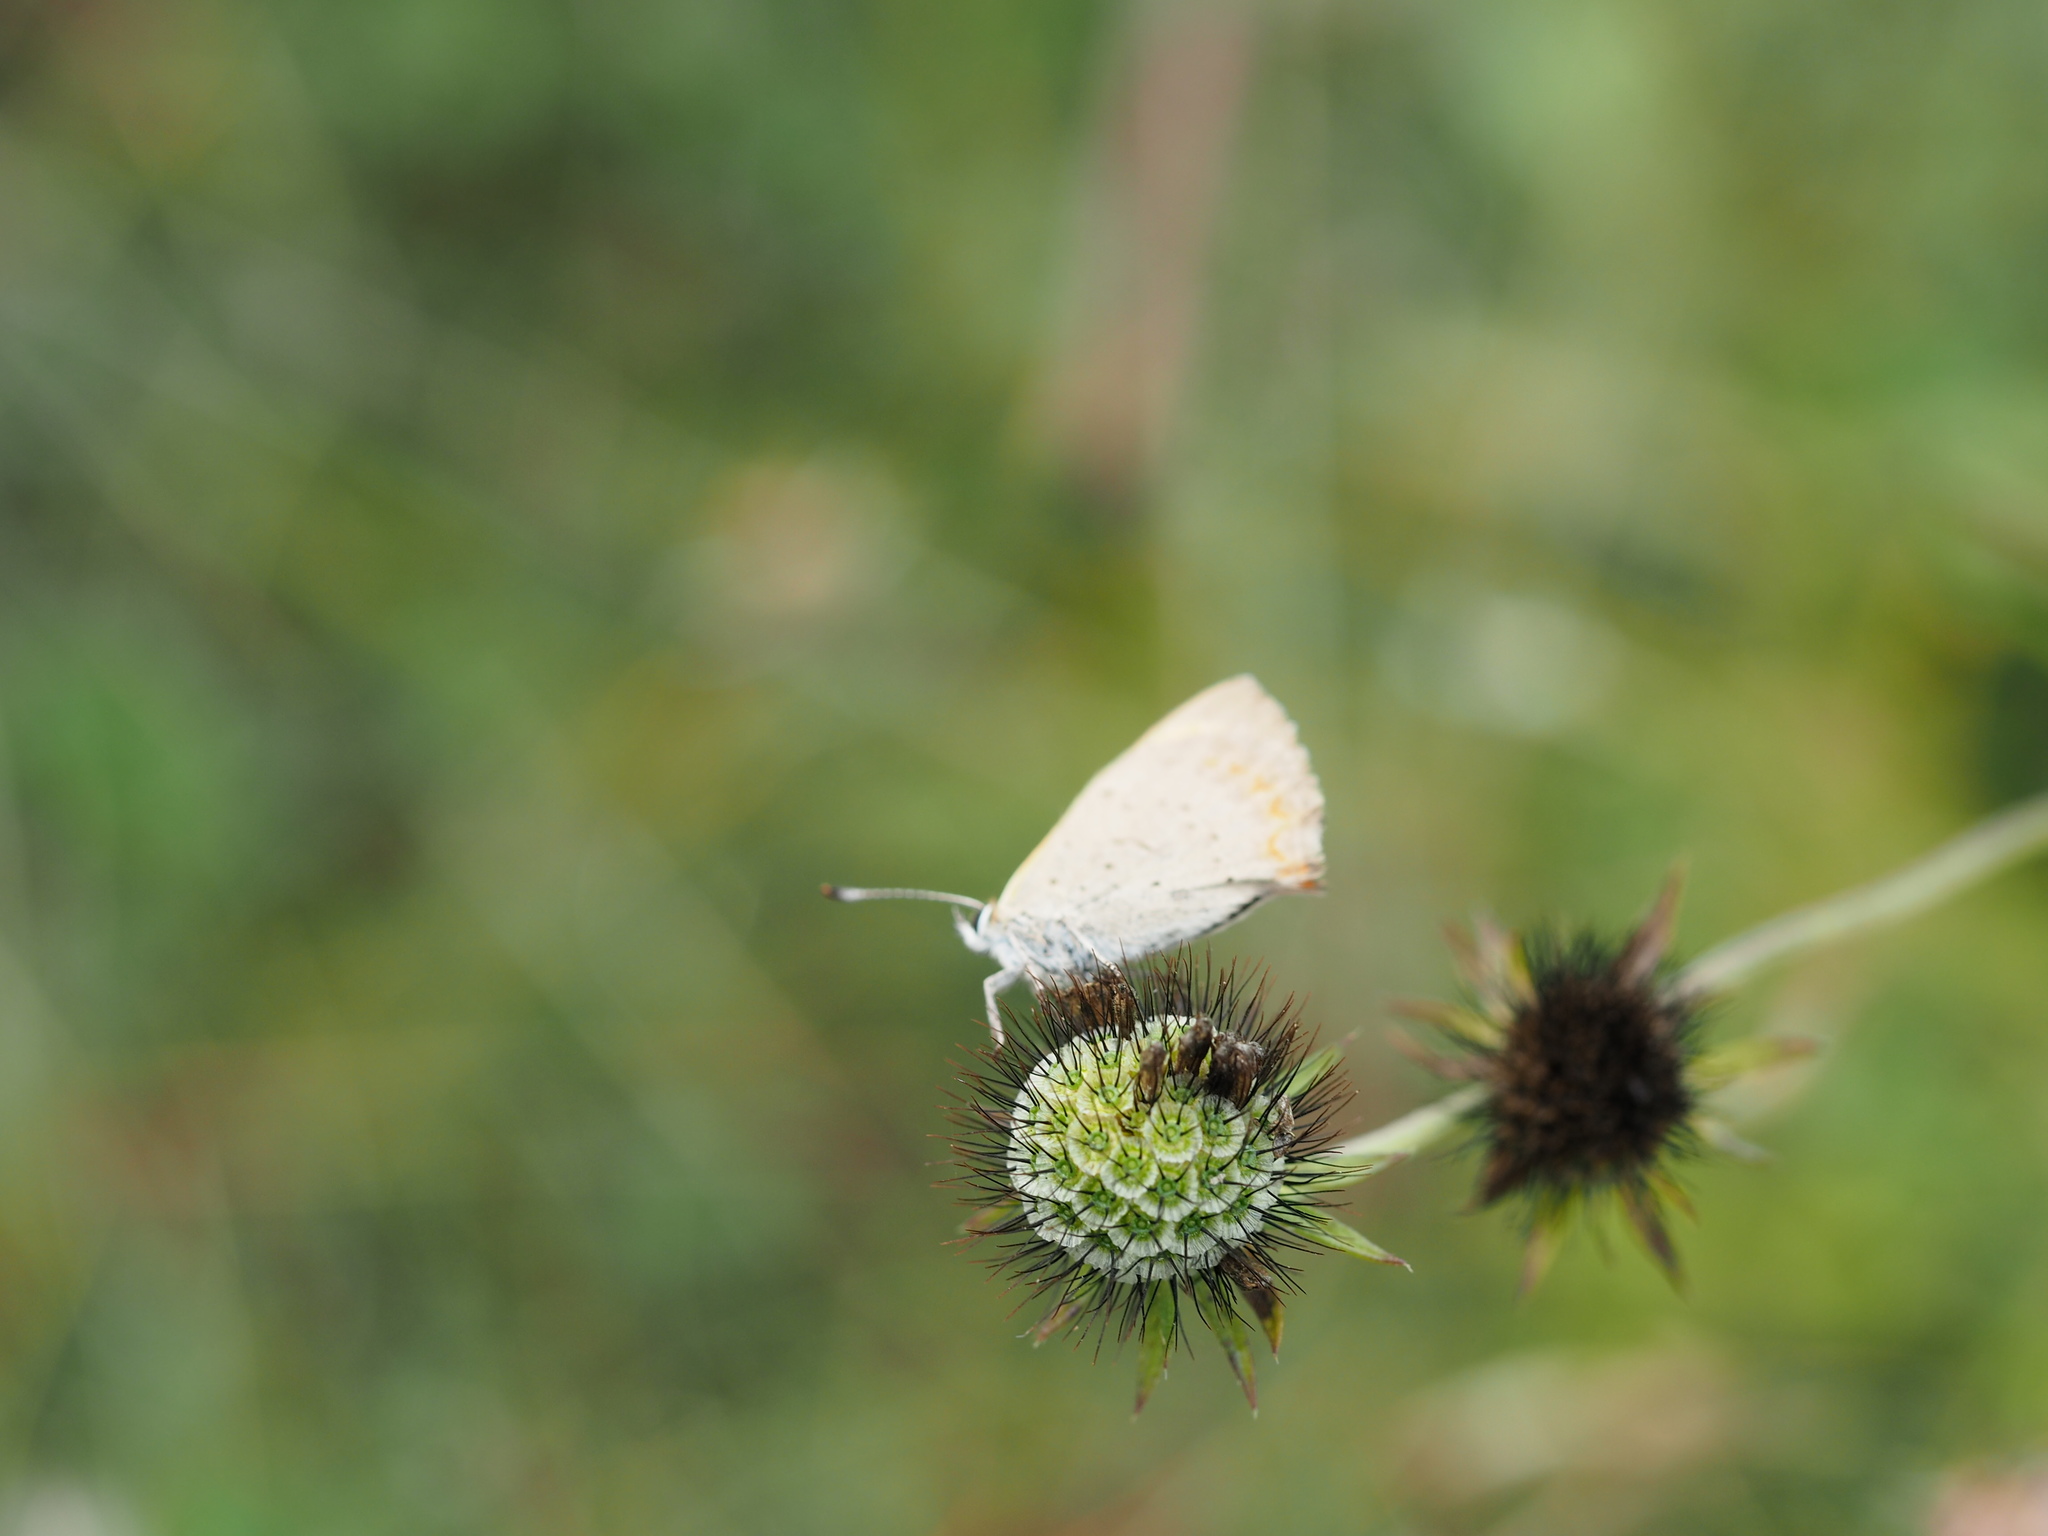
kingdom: Animalia
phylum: Arthropoda
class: Insecta
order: Lepidoptera
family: Lycaenidae
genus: Lycaena
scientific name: Lycaena phlaeas
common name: Small copper
